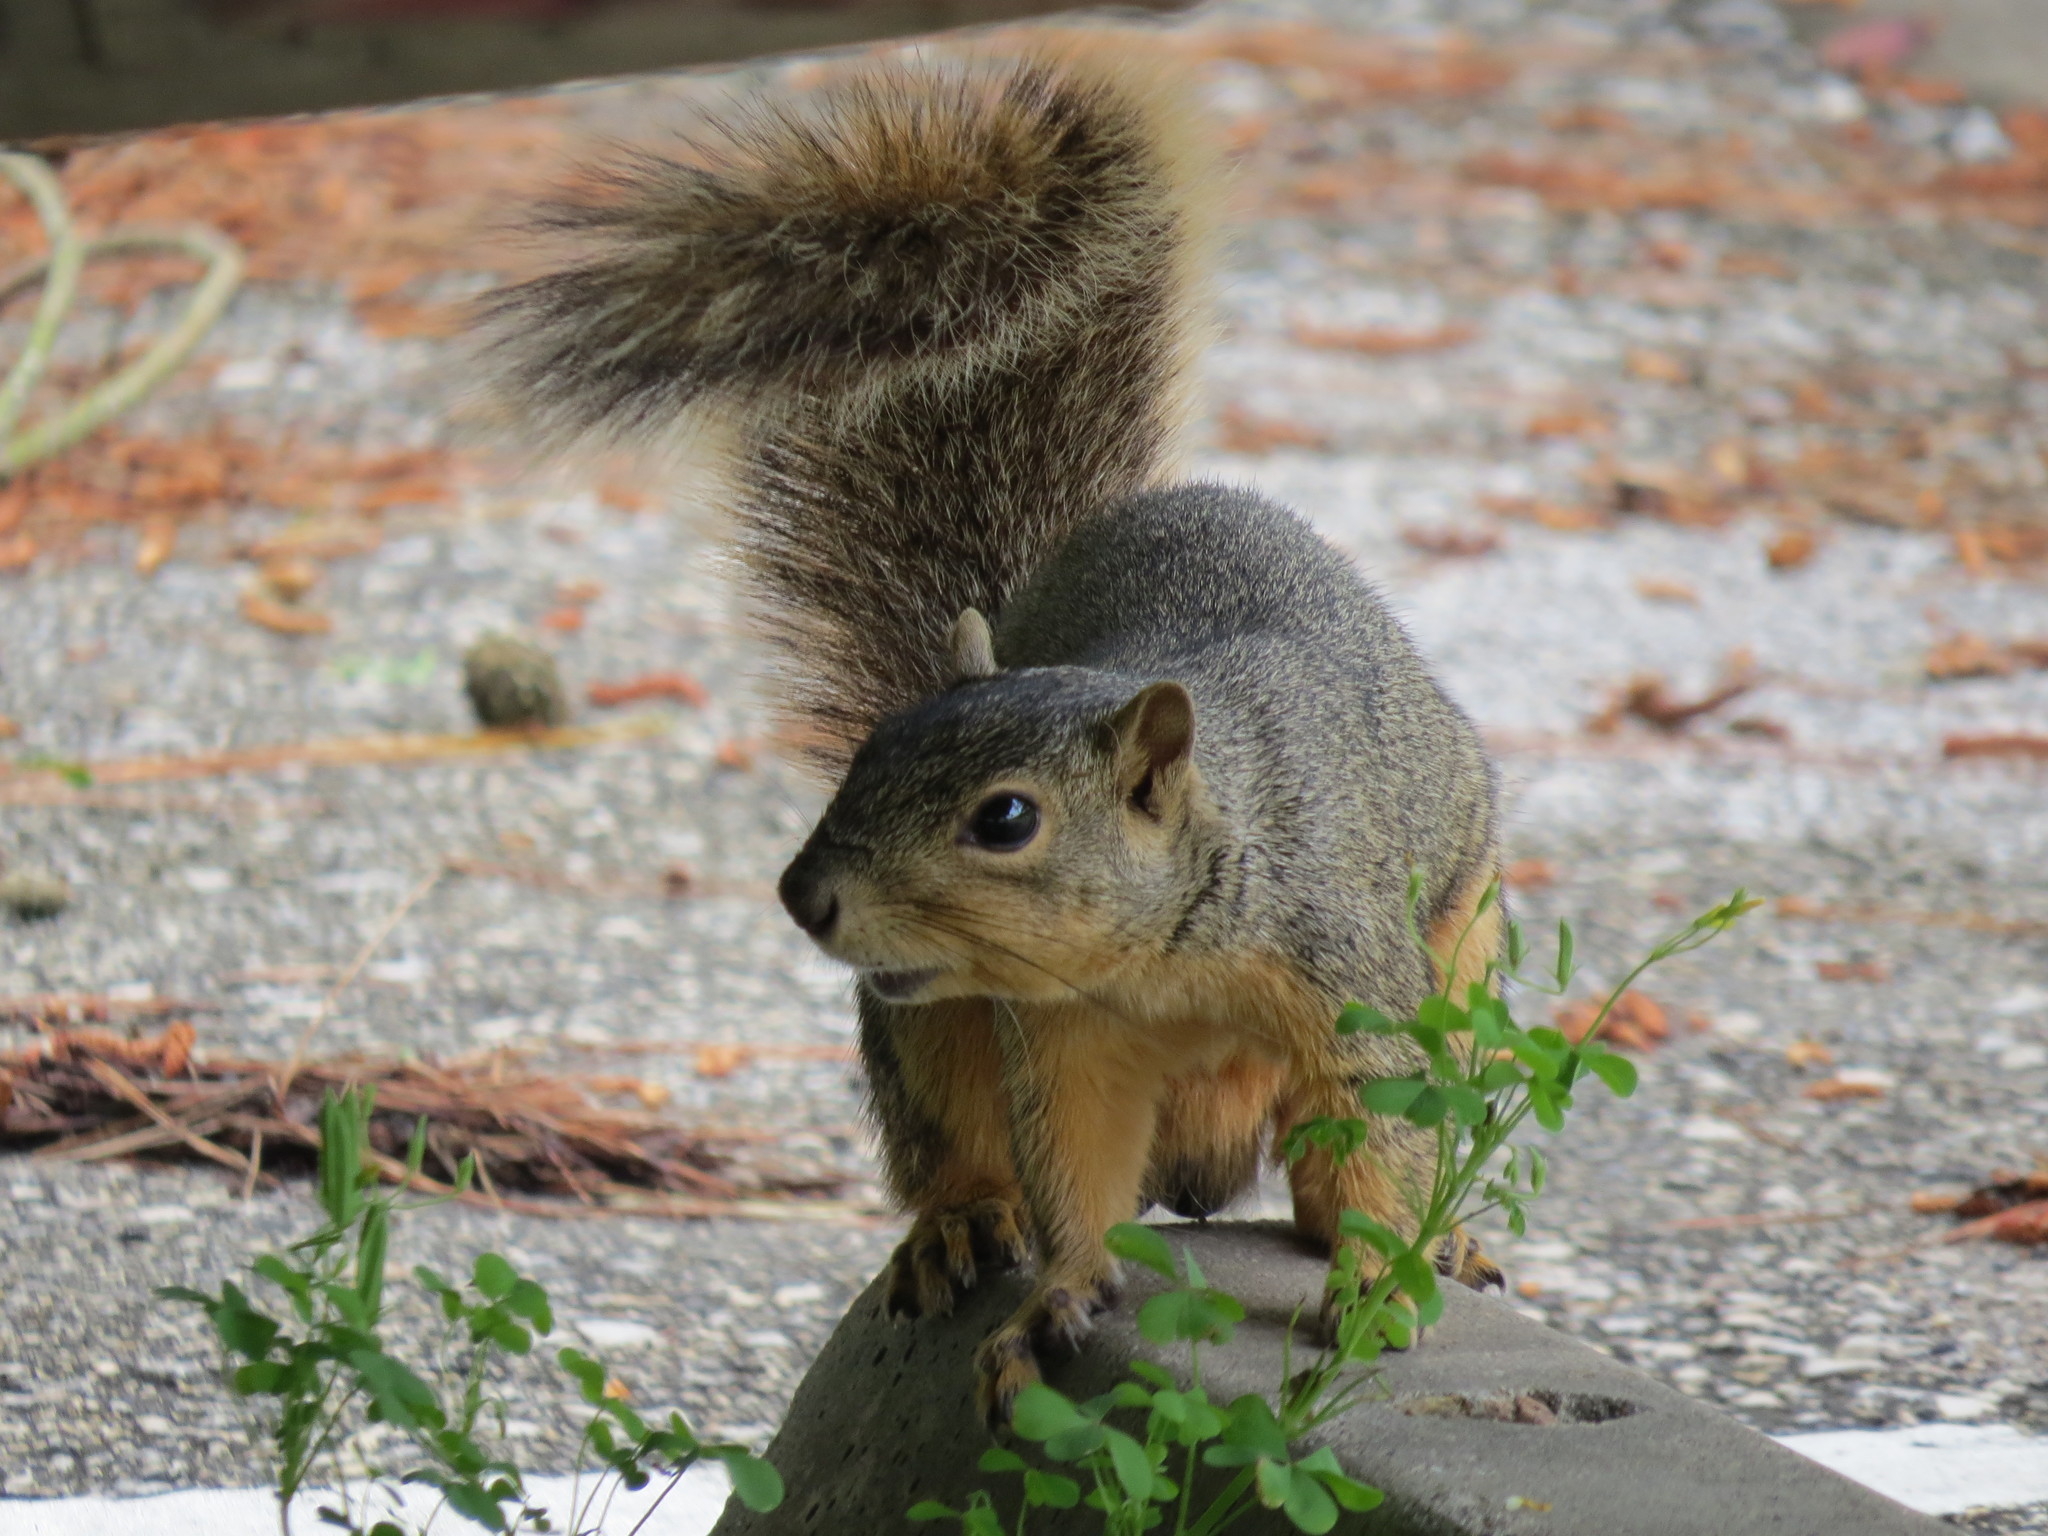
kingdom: Animalia
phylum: Chordata
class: Mammalia
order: Rodentia
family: Sciuridae
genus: Sciurus
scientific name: Sciurus niger
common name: Fox squirrel
